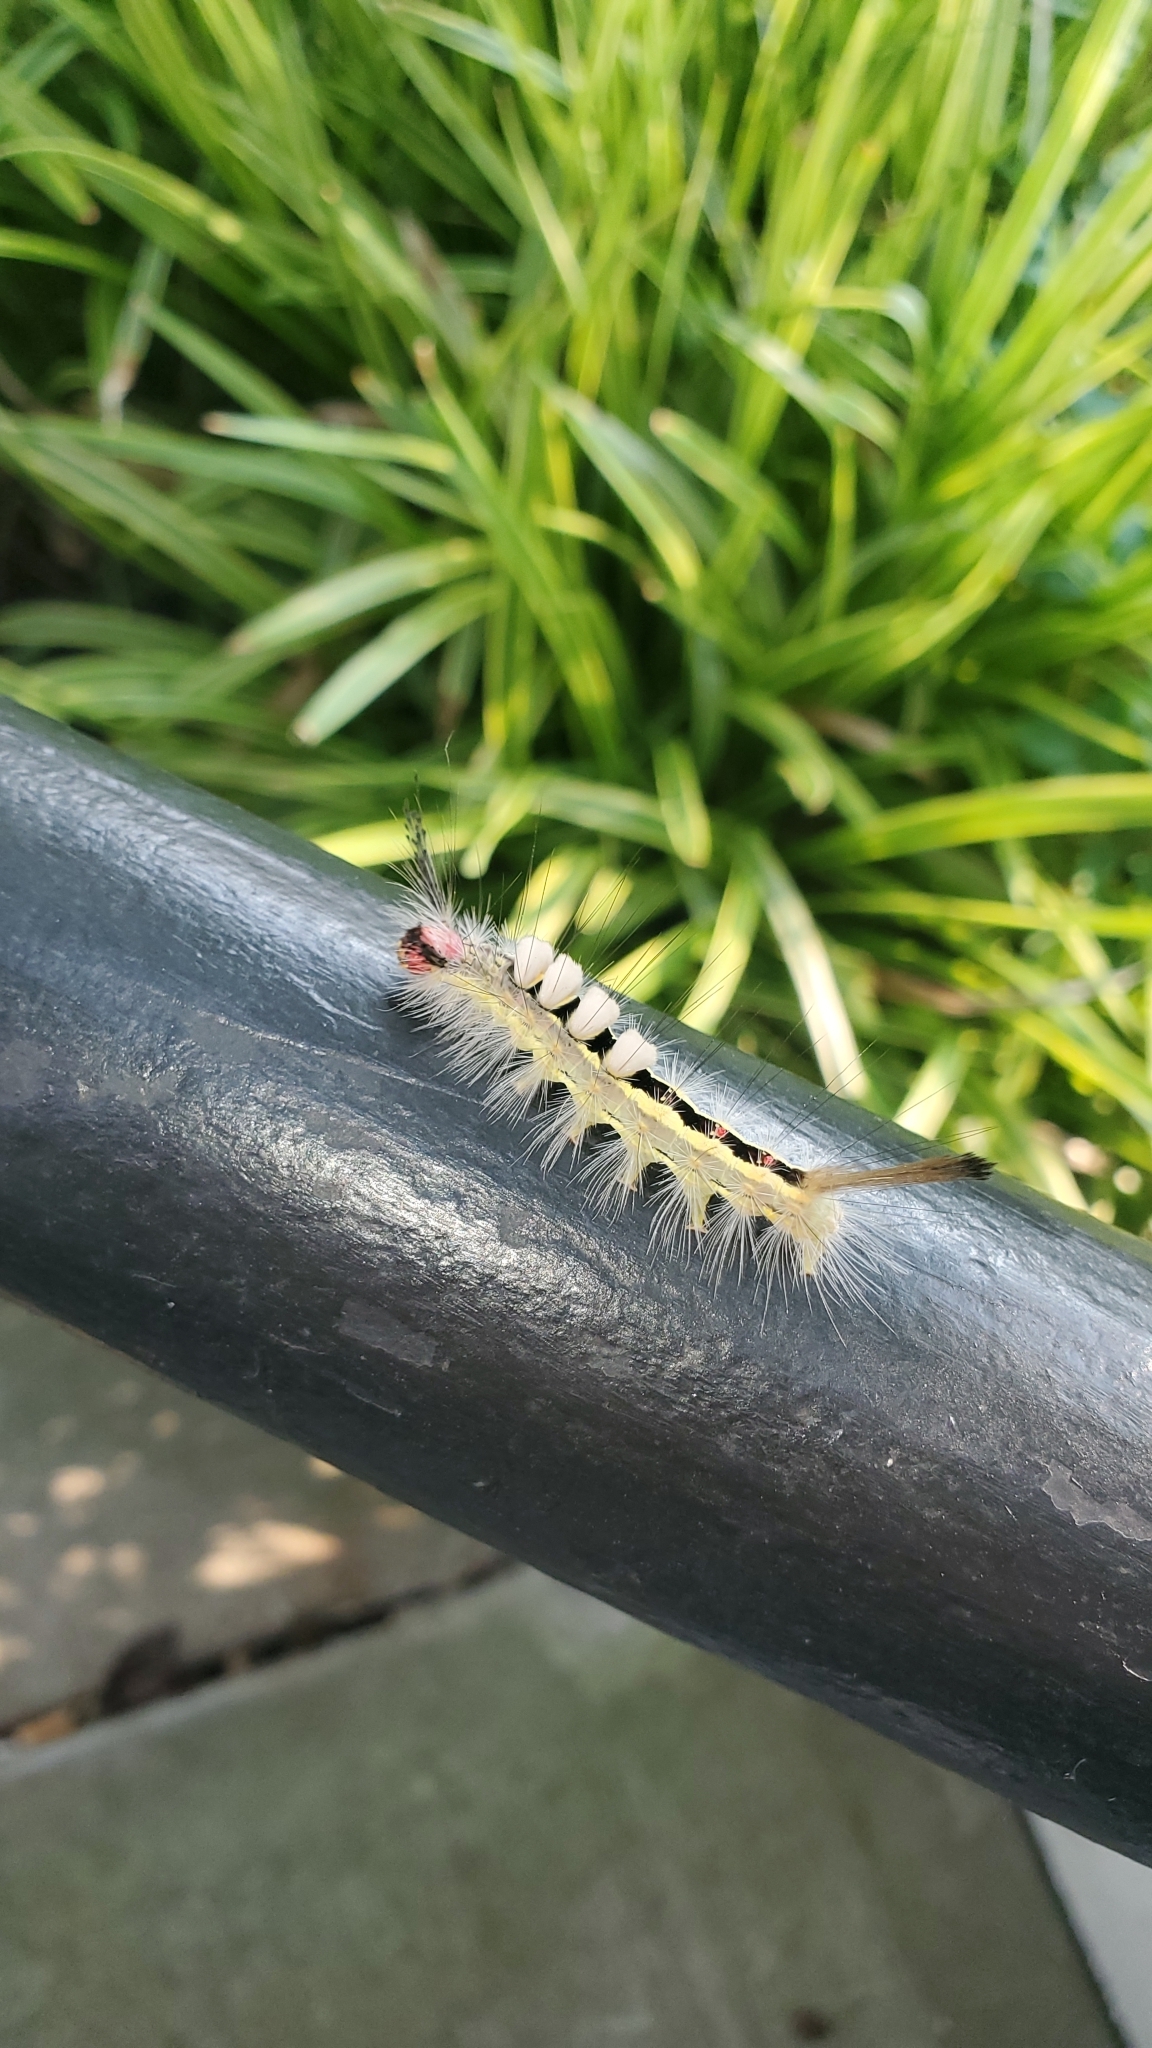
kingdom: Animalia
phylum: Arthropoda
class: Insecta
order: Lepidoptera
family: Erebidae
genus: Orgyia
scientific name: Orgyia leucostigma
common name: White-marked tussock moth
